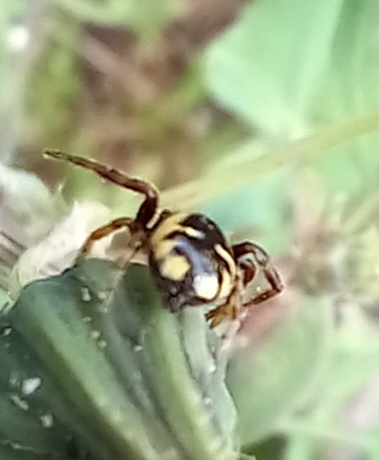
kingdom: Animalia
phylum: Arthropoda
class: Arachnida
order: Araneae
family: Thomisidae
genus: Synema
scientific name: Synema globosum
